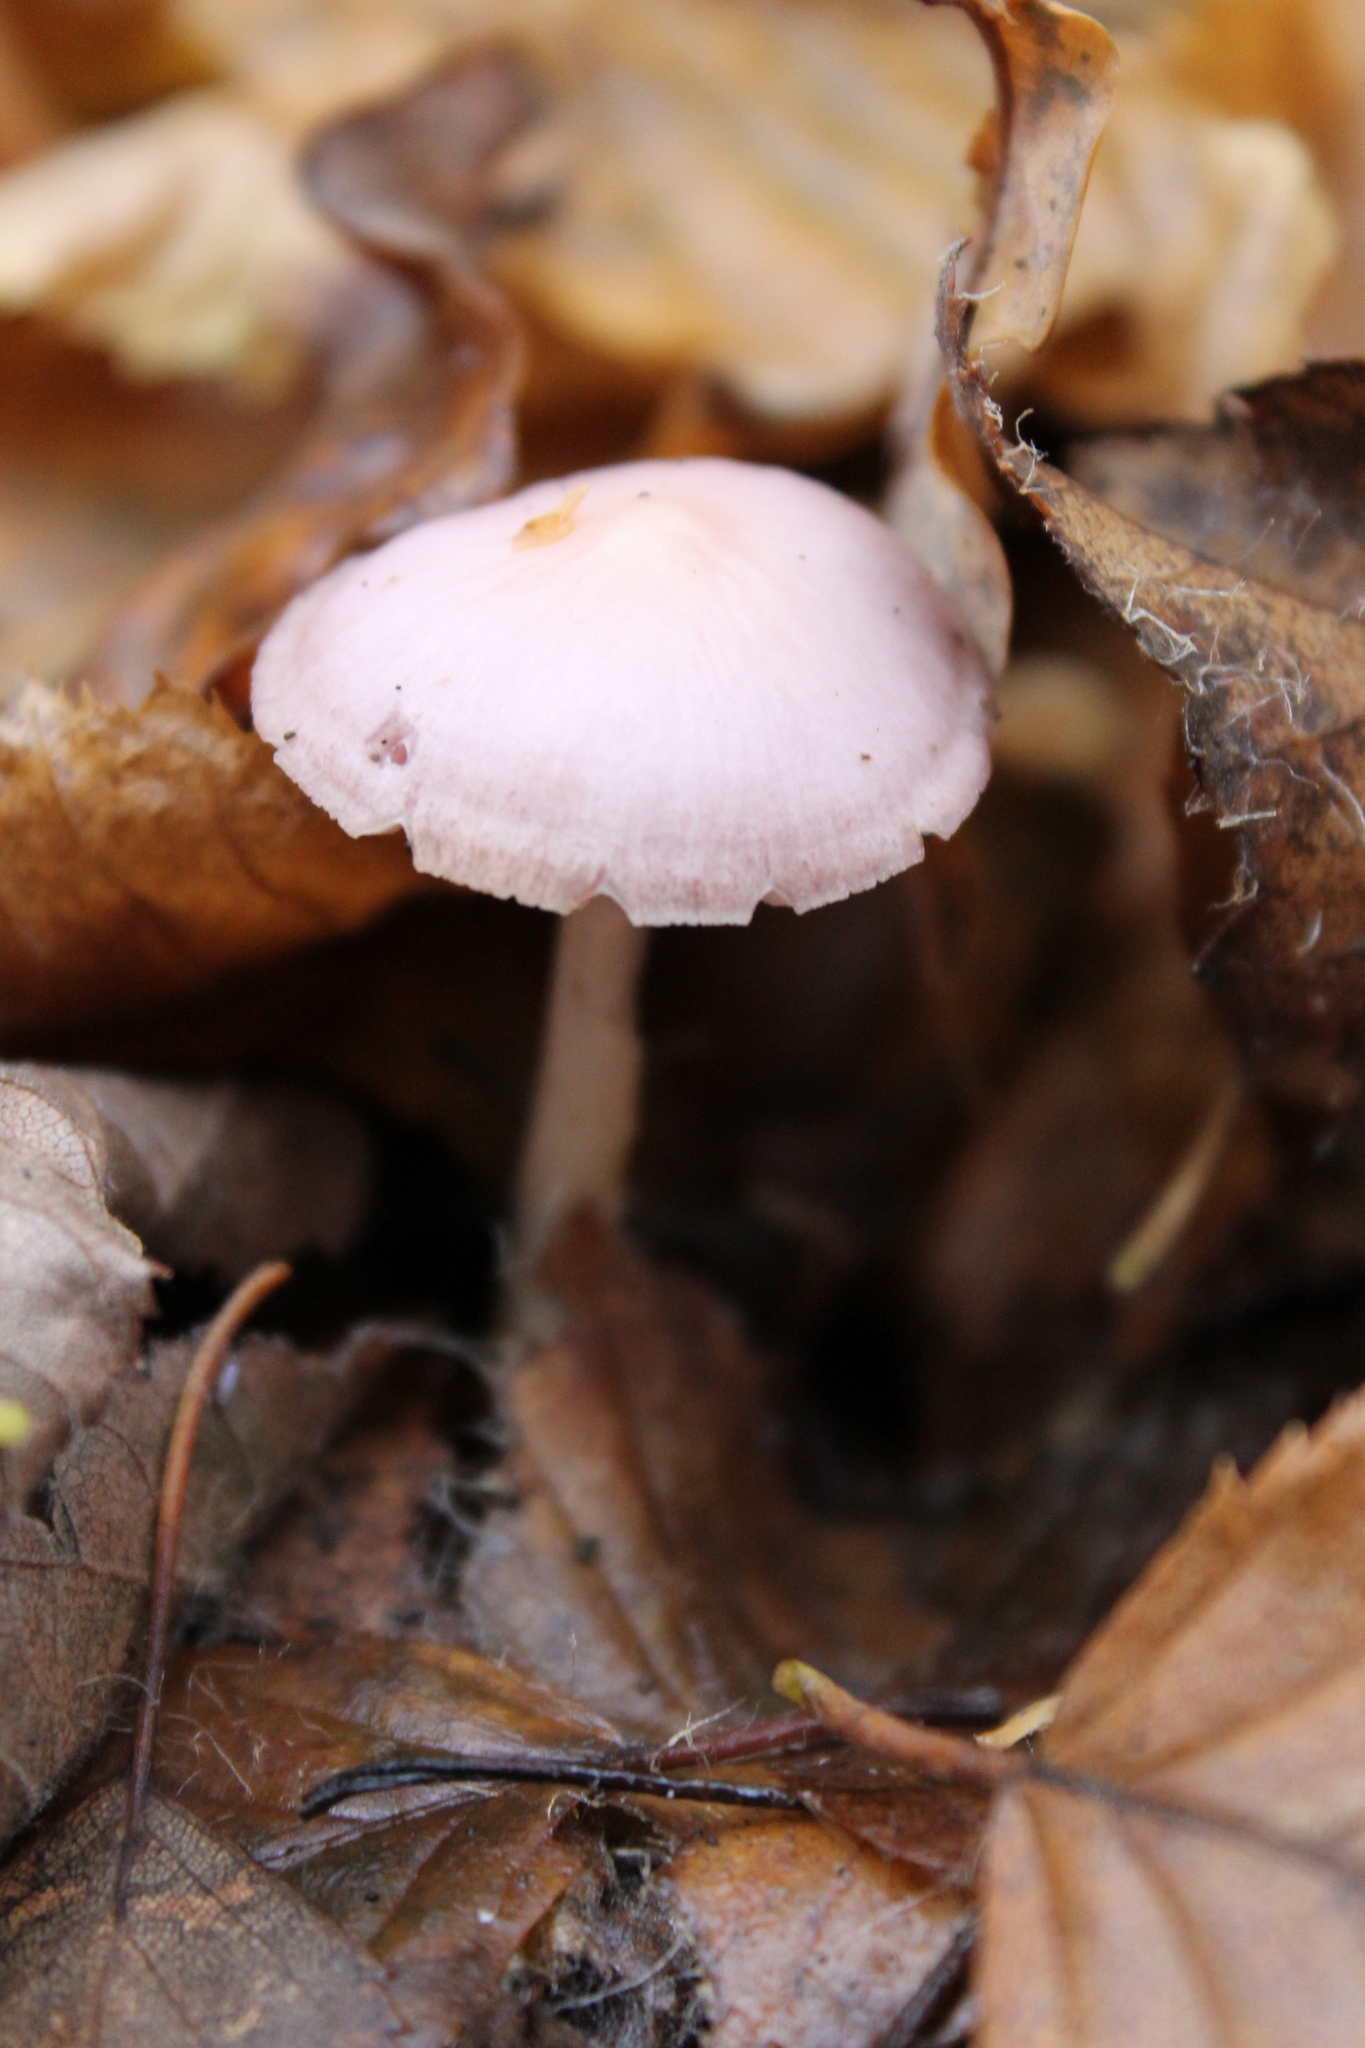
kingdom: Fungi
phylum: Basidiomycota
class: Agaricomycetes
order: Agaricales
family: Mycenaceae
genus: Mycena
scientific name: Mycena rosea
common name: Rosy bonnet
